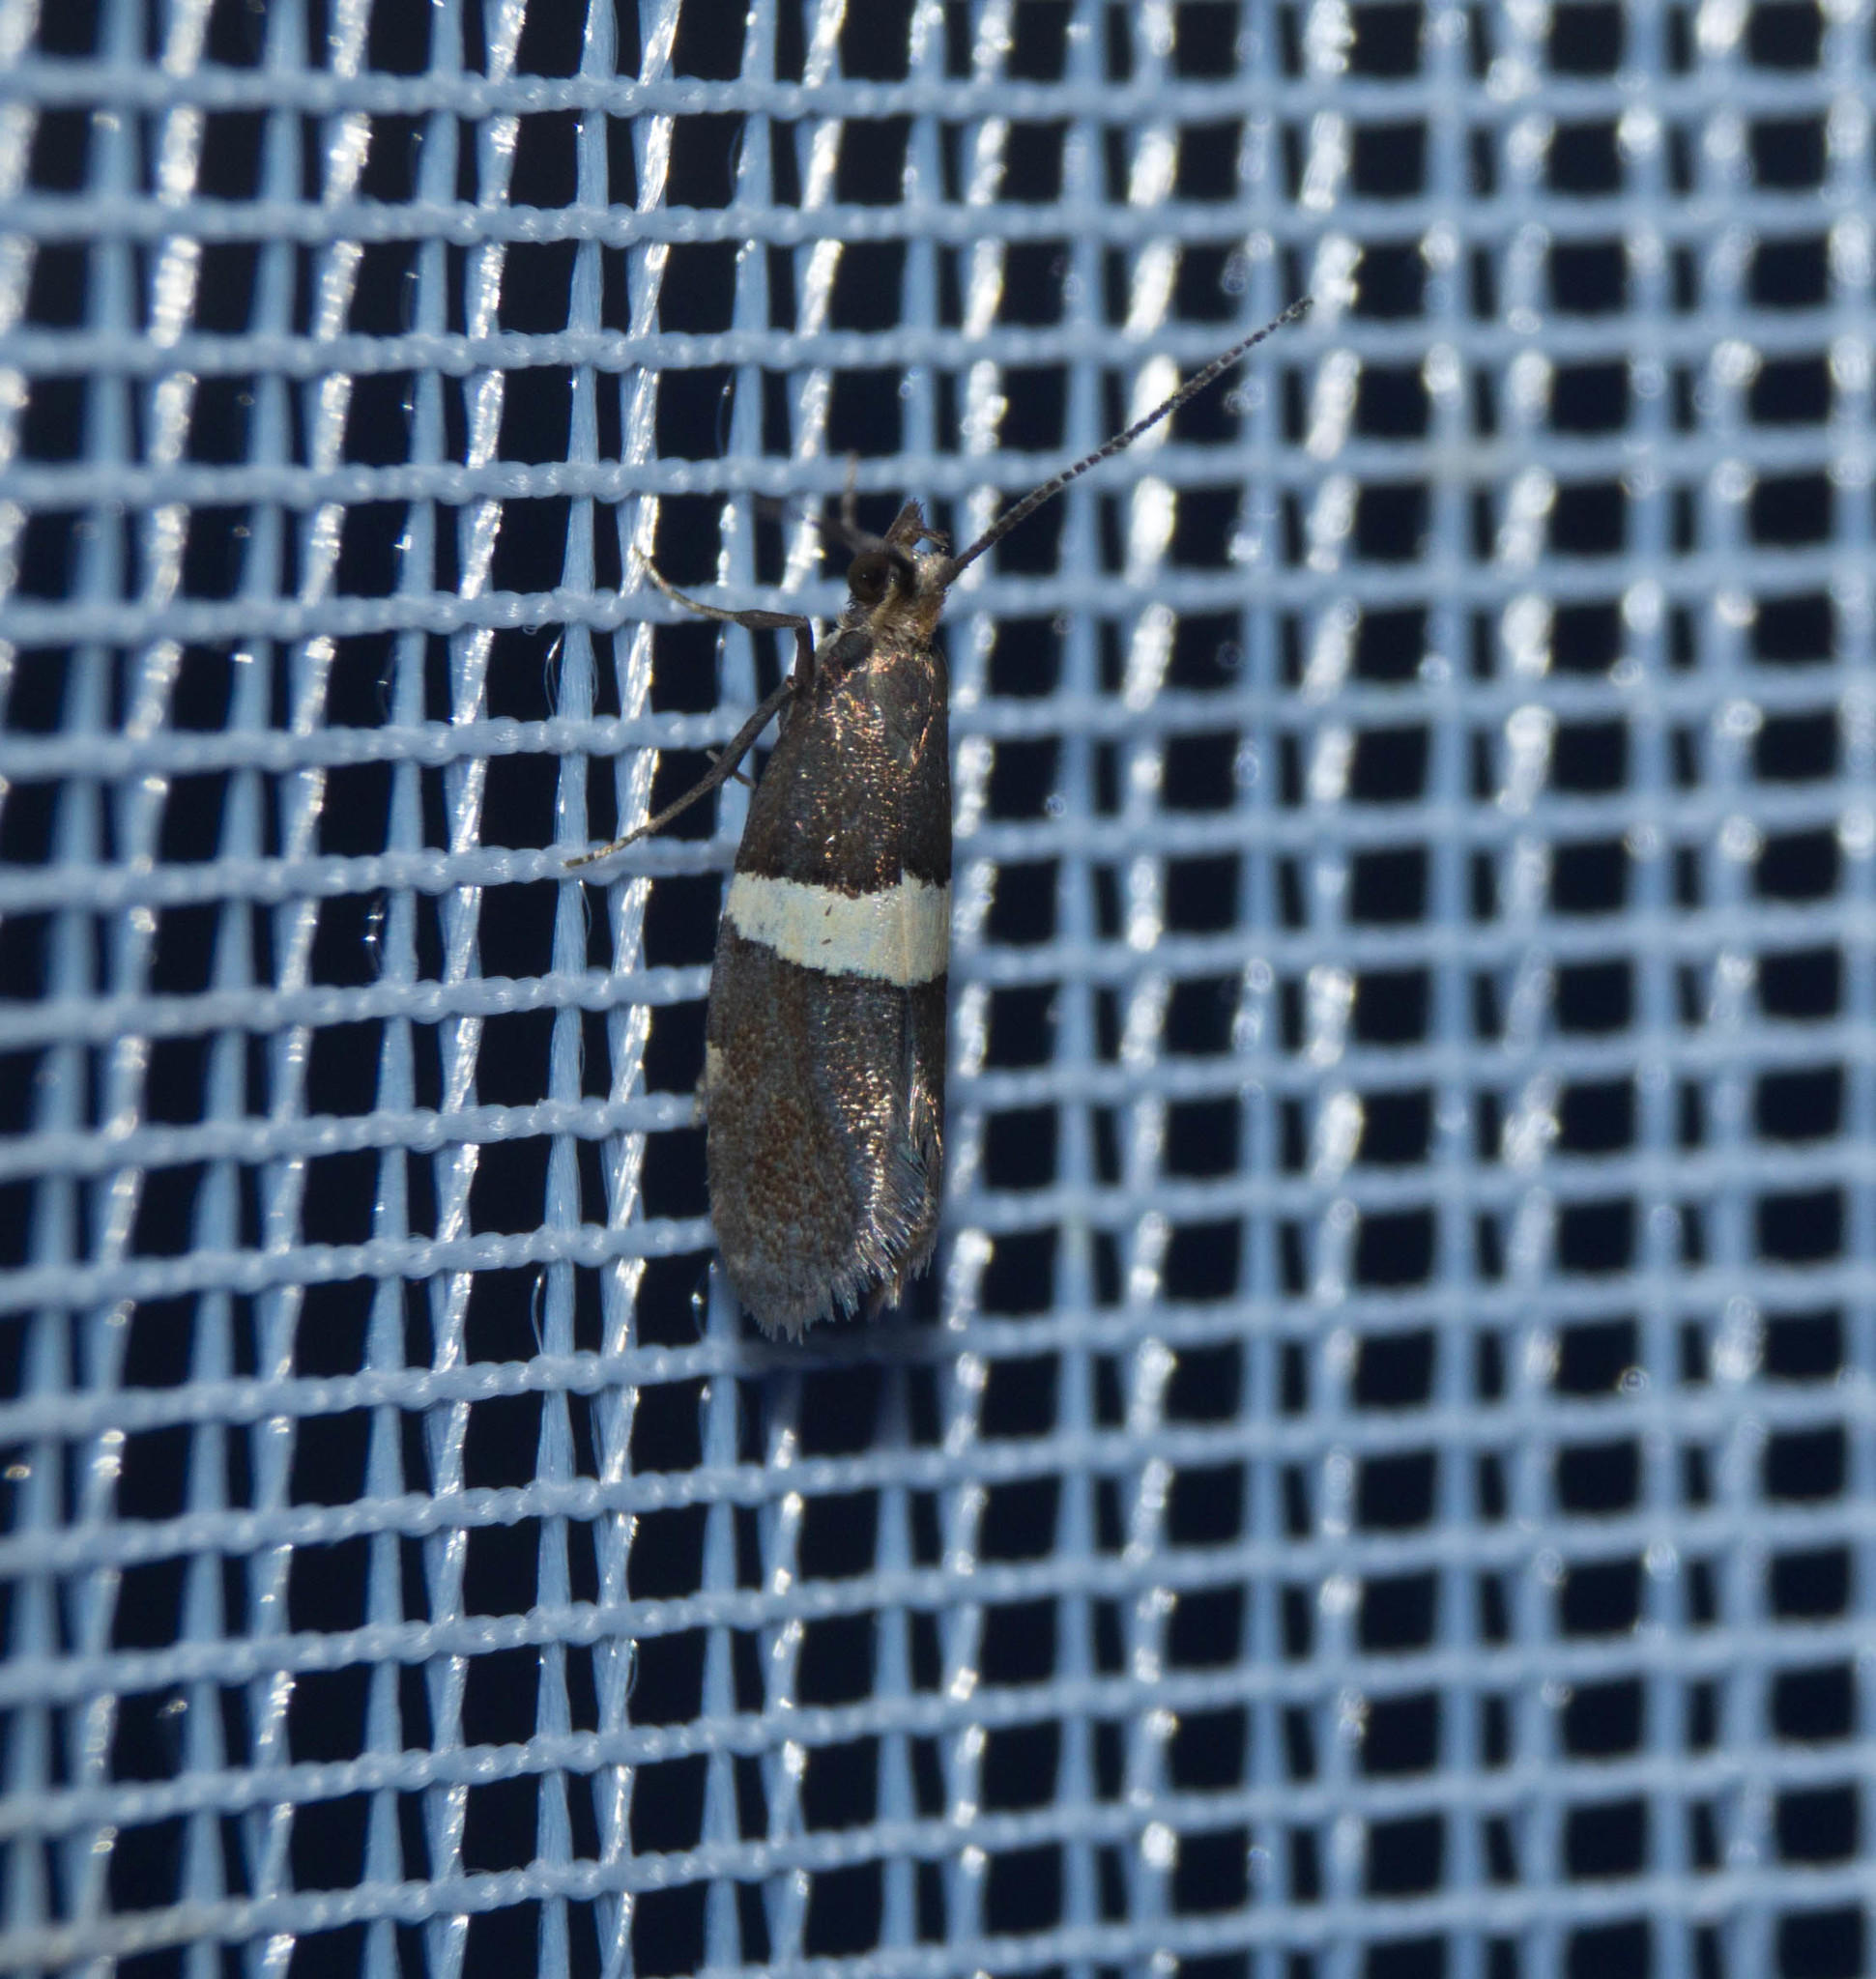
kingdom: Animalia
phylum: Arthropoda
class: Insecta
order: Lepidoptera
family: Plutellidae
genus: Eidophasia
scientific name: Eidophasia messingiella
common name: Bitter-cress smudge
